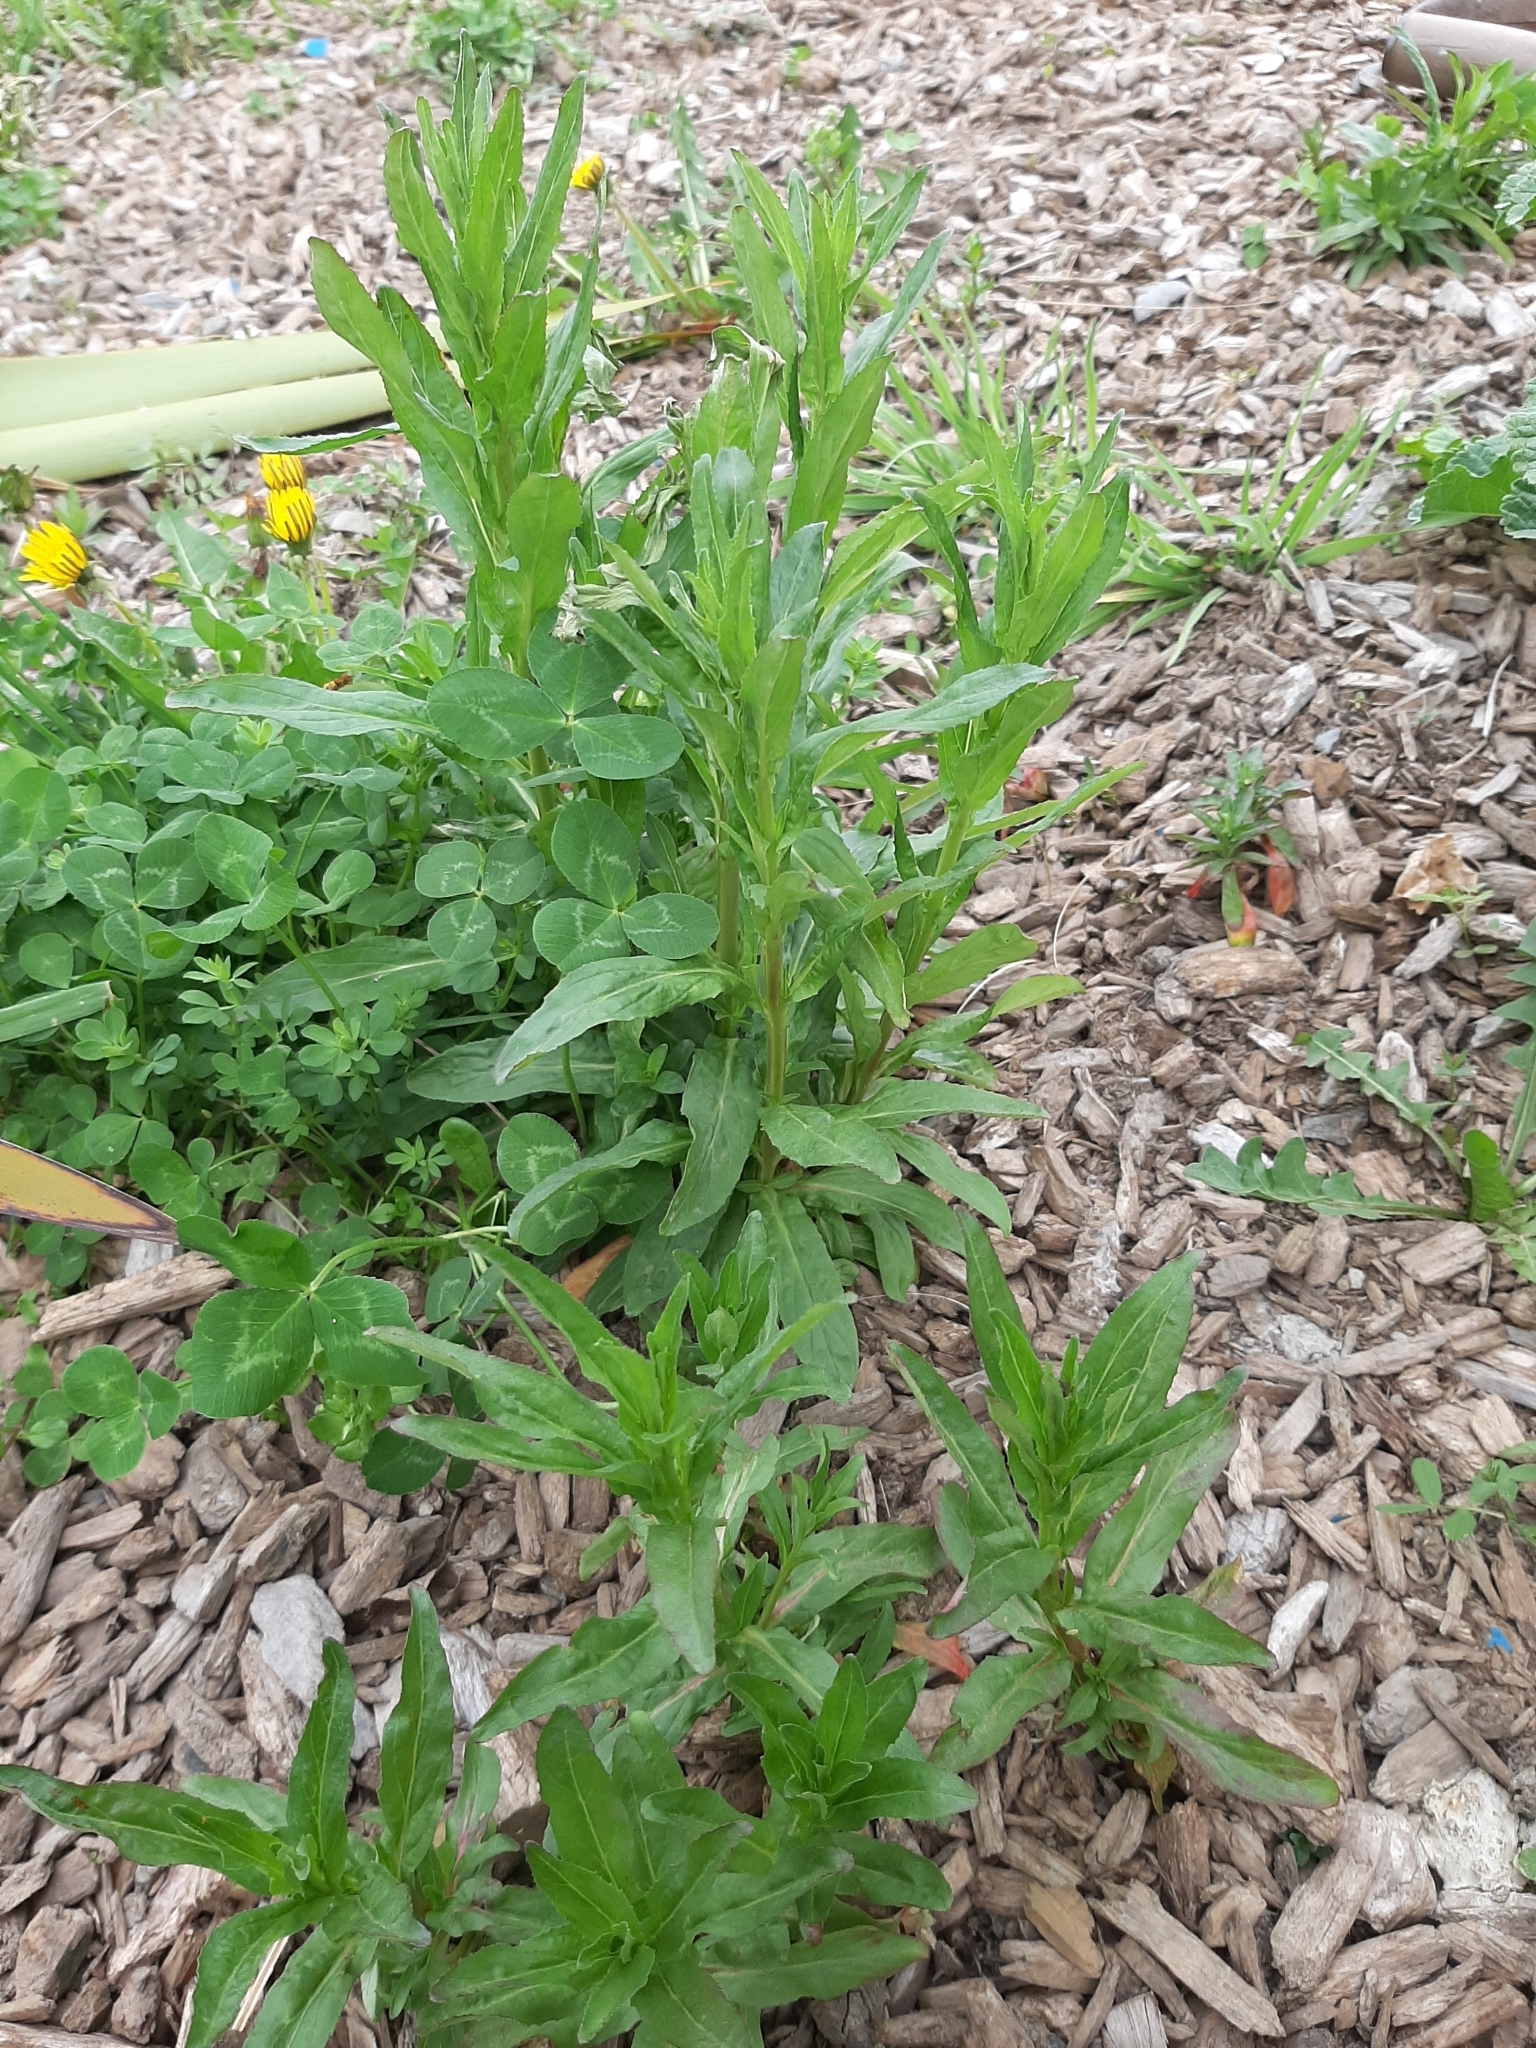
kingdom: Plantae
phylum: Tracheophyta
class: Magnoliopsida
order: Myrtales
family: Onagraceae
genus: Epilobium
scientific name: Epilobium ciliatum
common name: American willowherb
